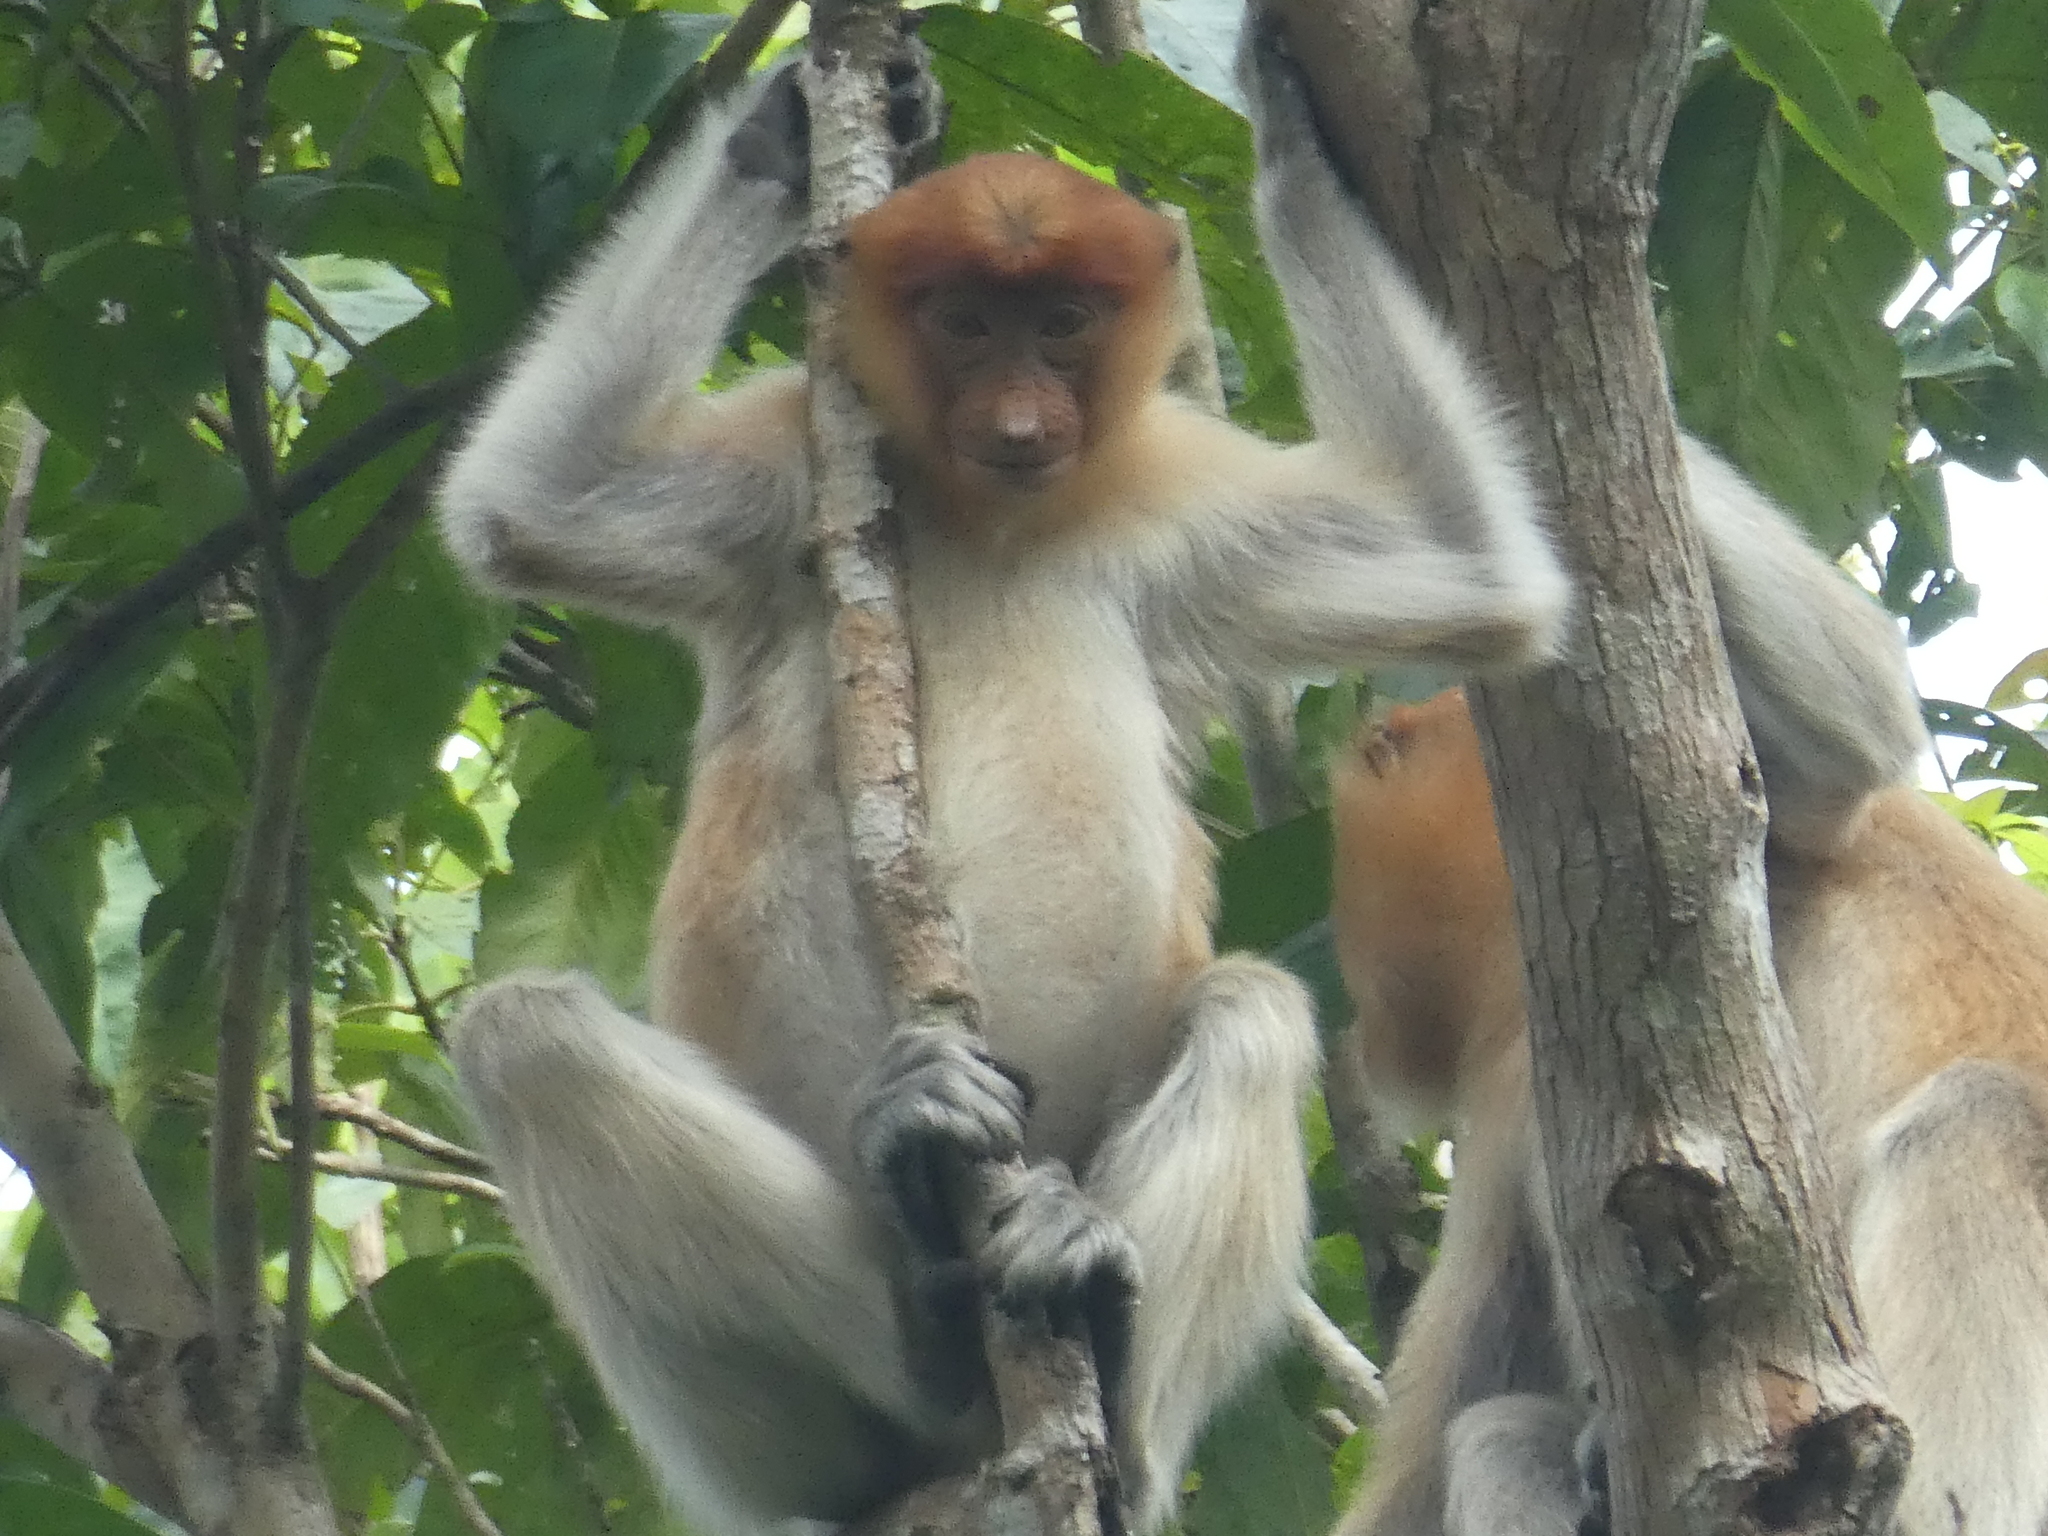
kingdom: Animalia
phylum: Chordata
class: Mammalia
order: Primates
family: Cercopithecidae
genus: Nasalis
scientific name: Nasalis larvatus
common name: Proboscis monkey
